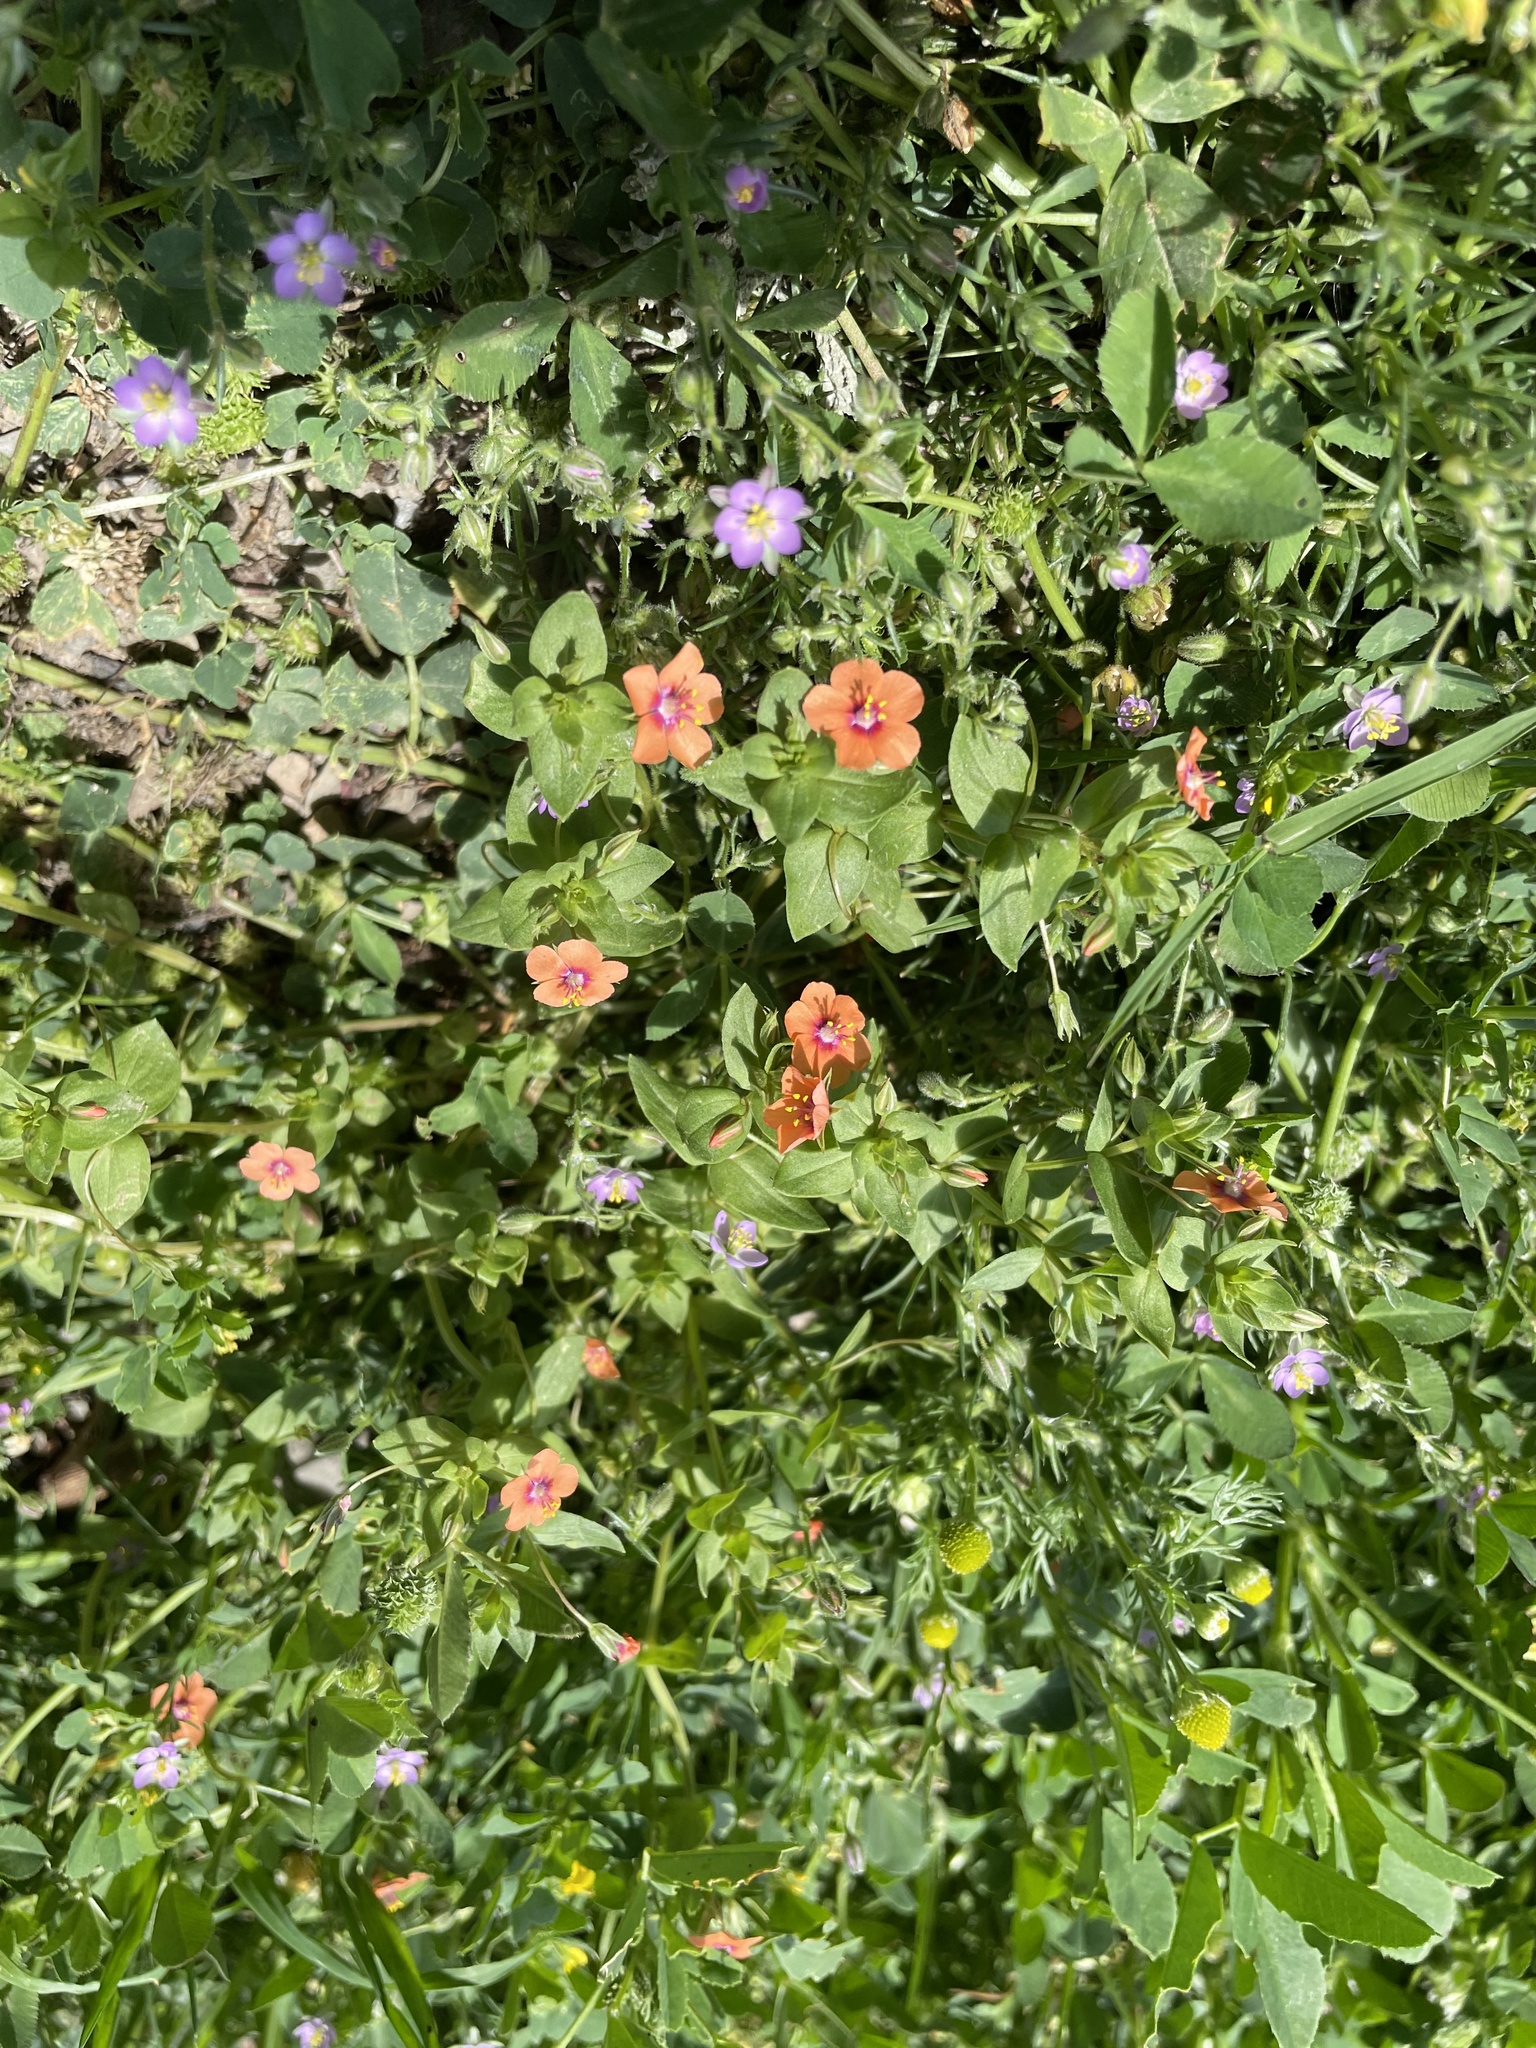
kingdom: Plantae
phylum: Tracheophyta
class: Magnoliopsida
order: Ericales
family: Primulaceae
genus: Lysimachia
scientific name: Lysimachia arvensis
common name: Scarlet pimpernel
